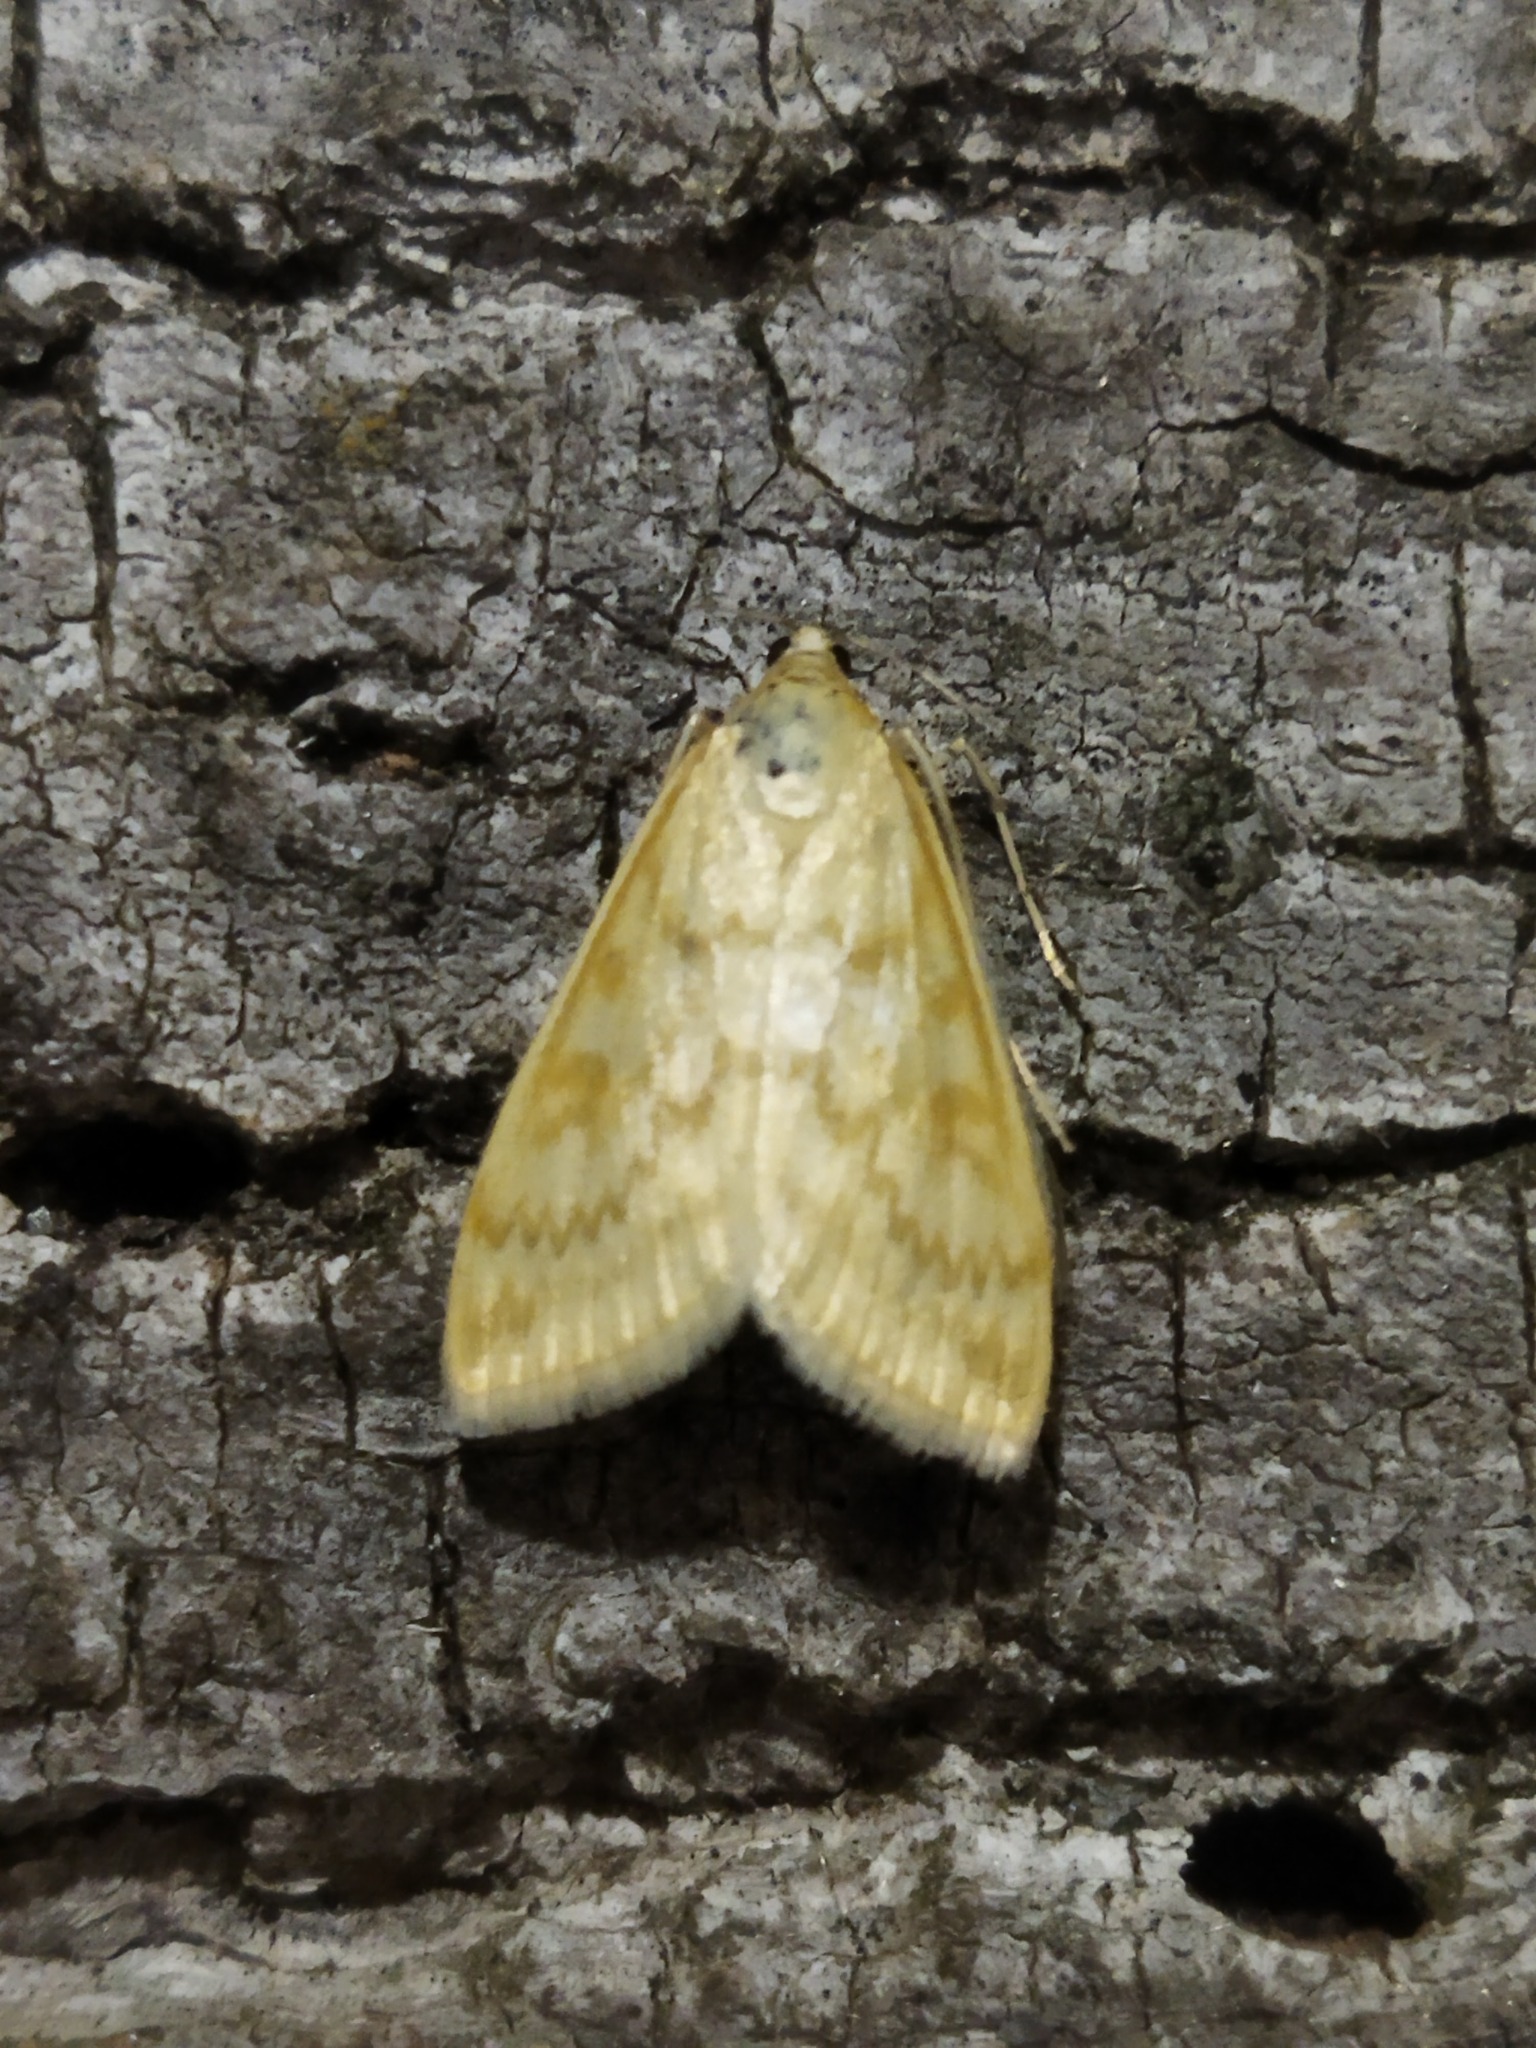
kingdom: Animalia
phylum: Arthropoda
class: Insecta
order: Lepidoptera
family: Crambidae
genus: Sitochroa
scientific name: Sitochroa verticalis
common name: Lesser pearl
